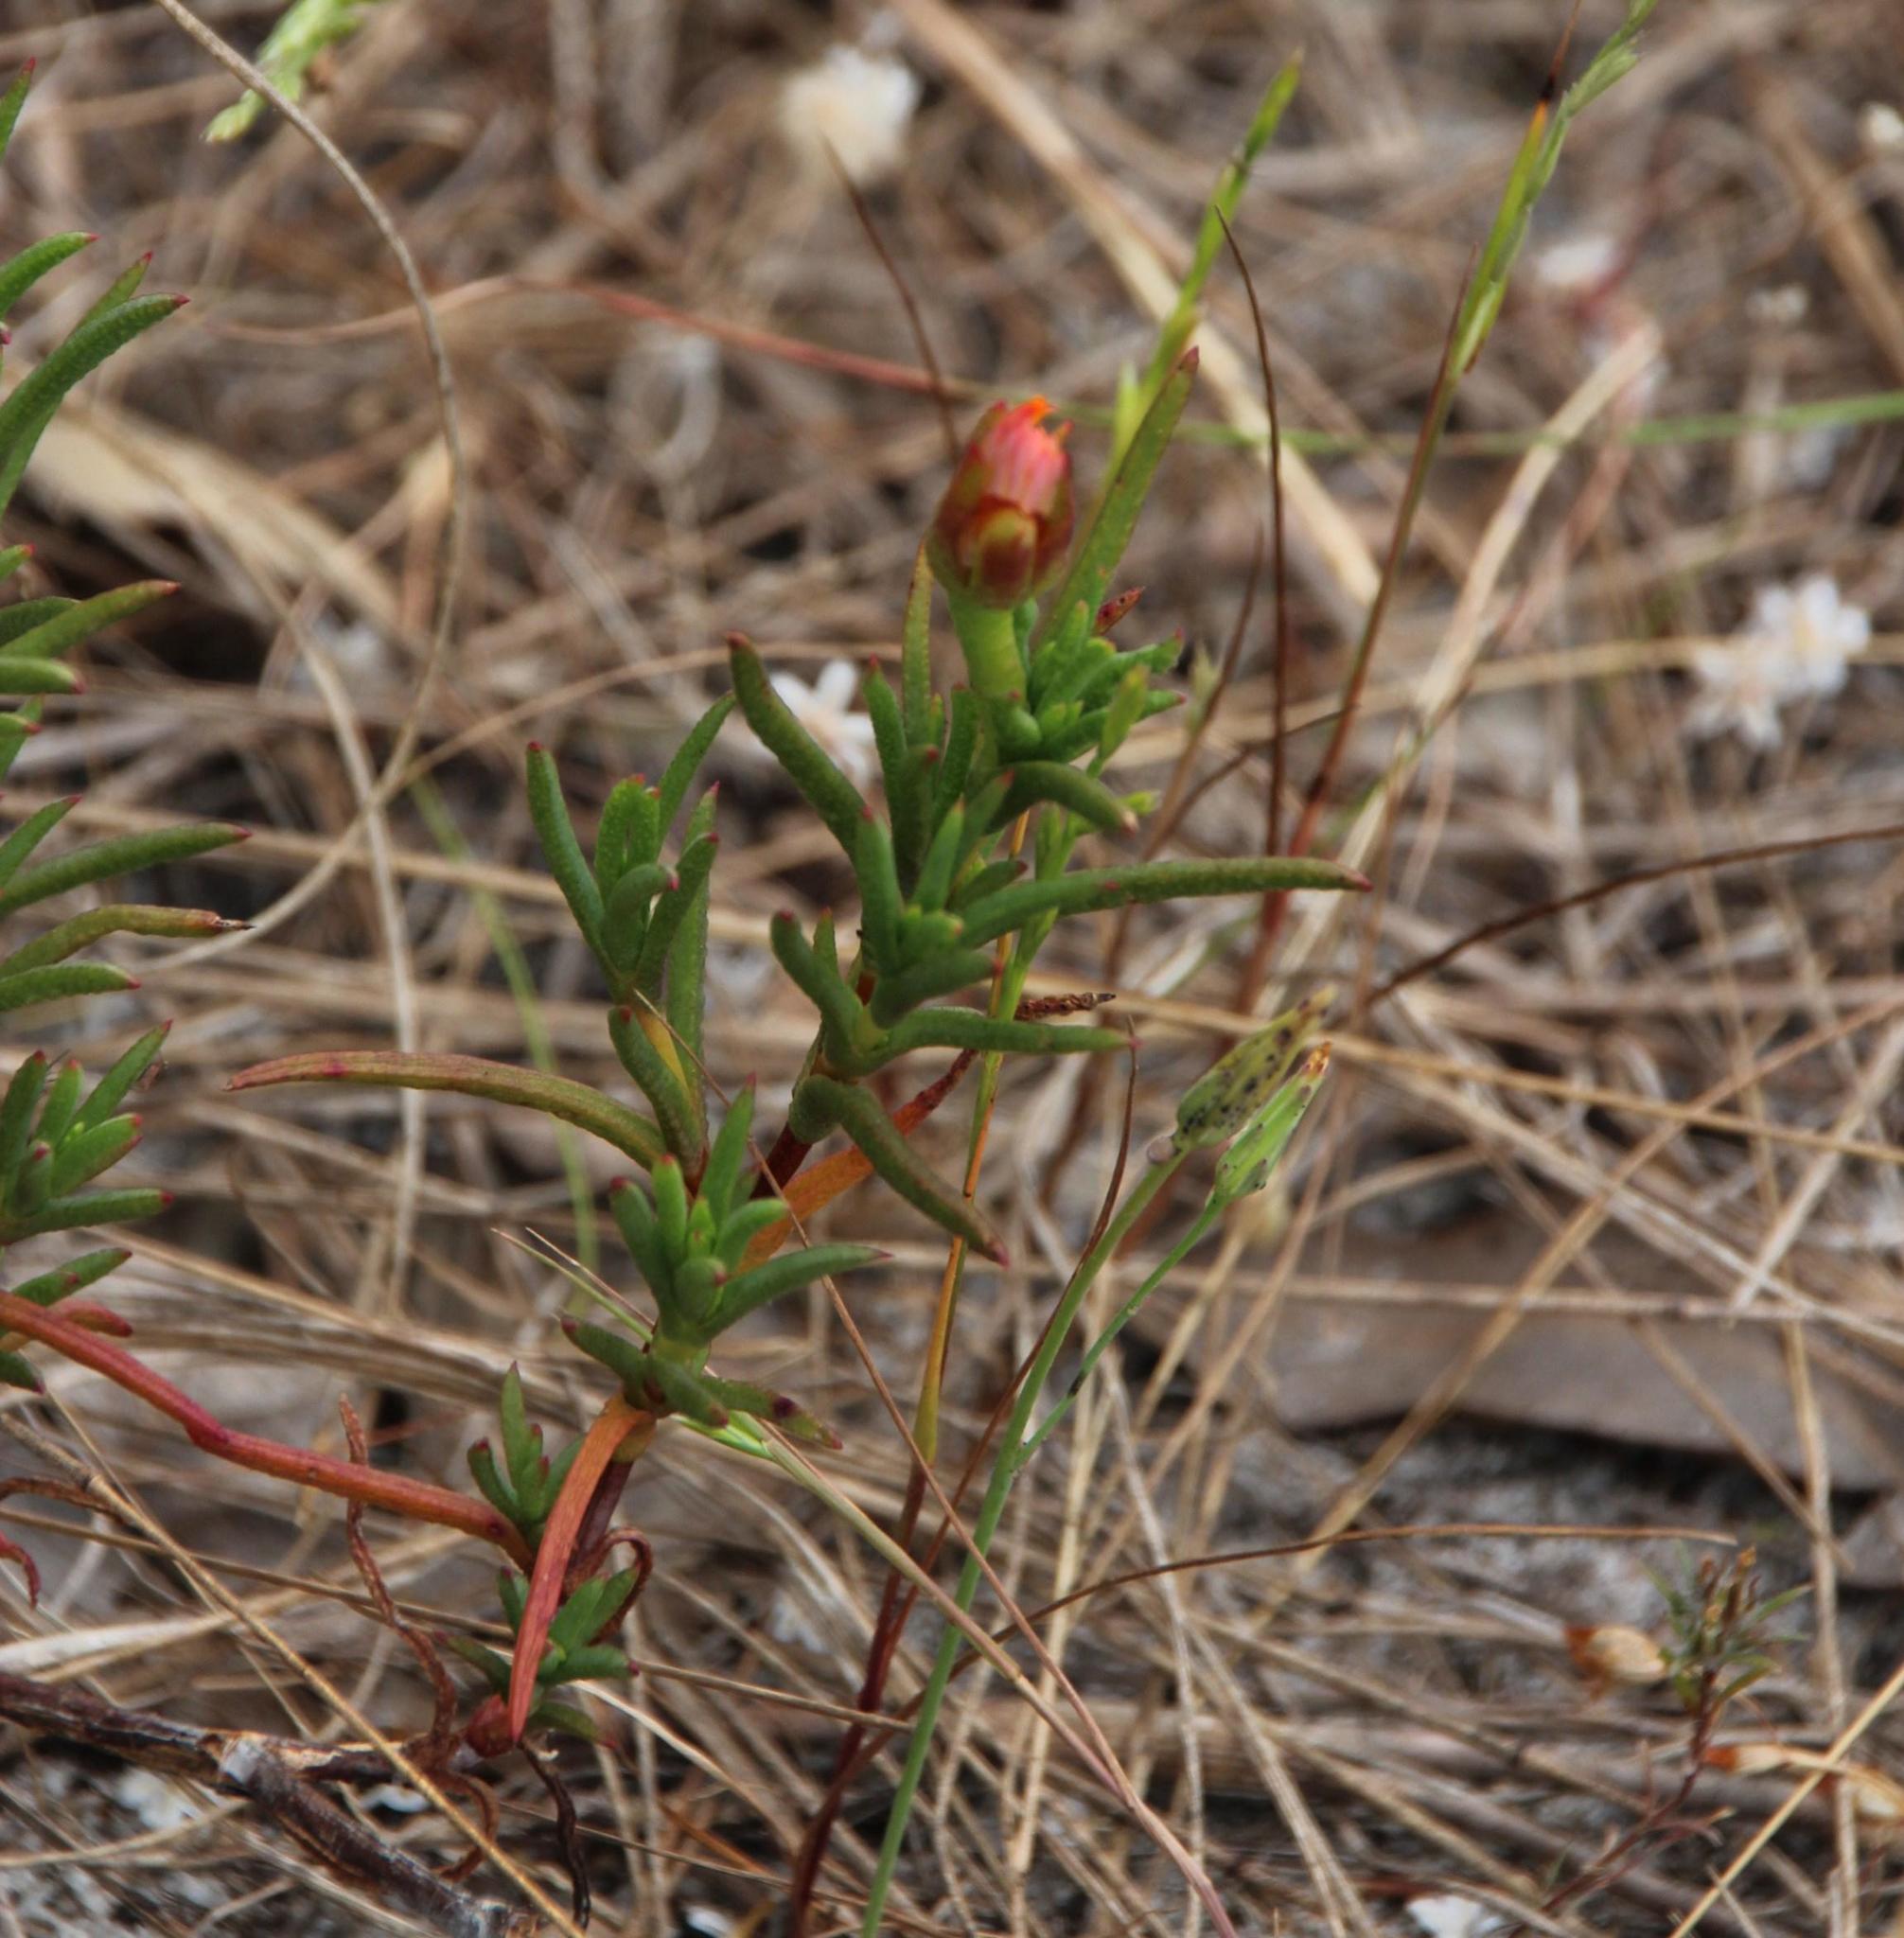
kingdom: Plantae
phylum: Tracheophyta
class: Magnoliopsida
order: Caryophyllales
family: Aizoaceae
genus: Lampranthus
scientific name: Lampranthus bicolor
